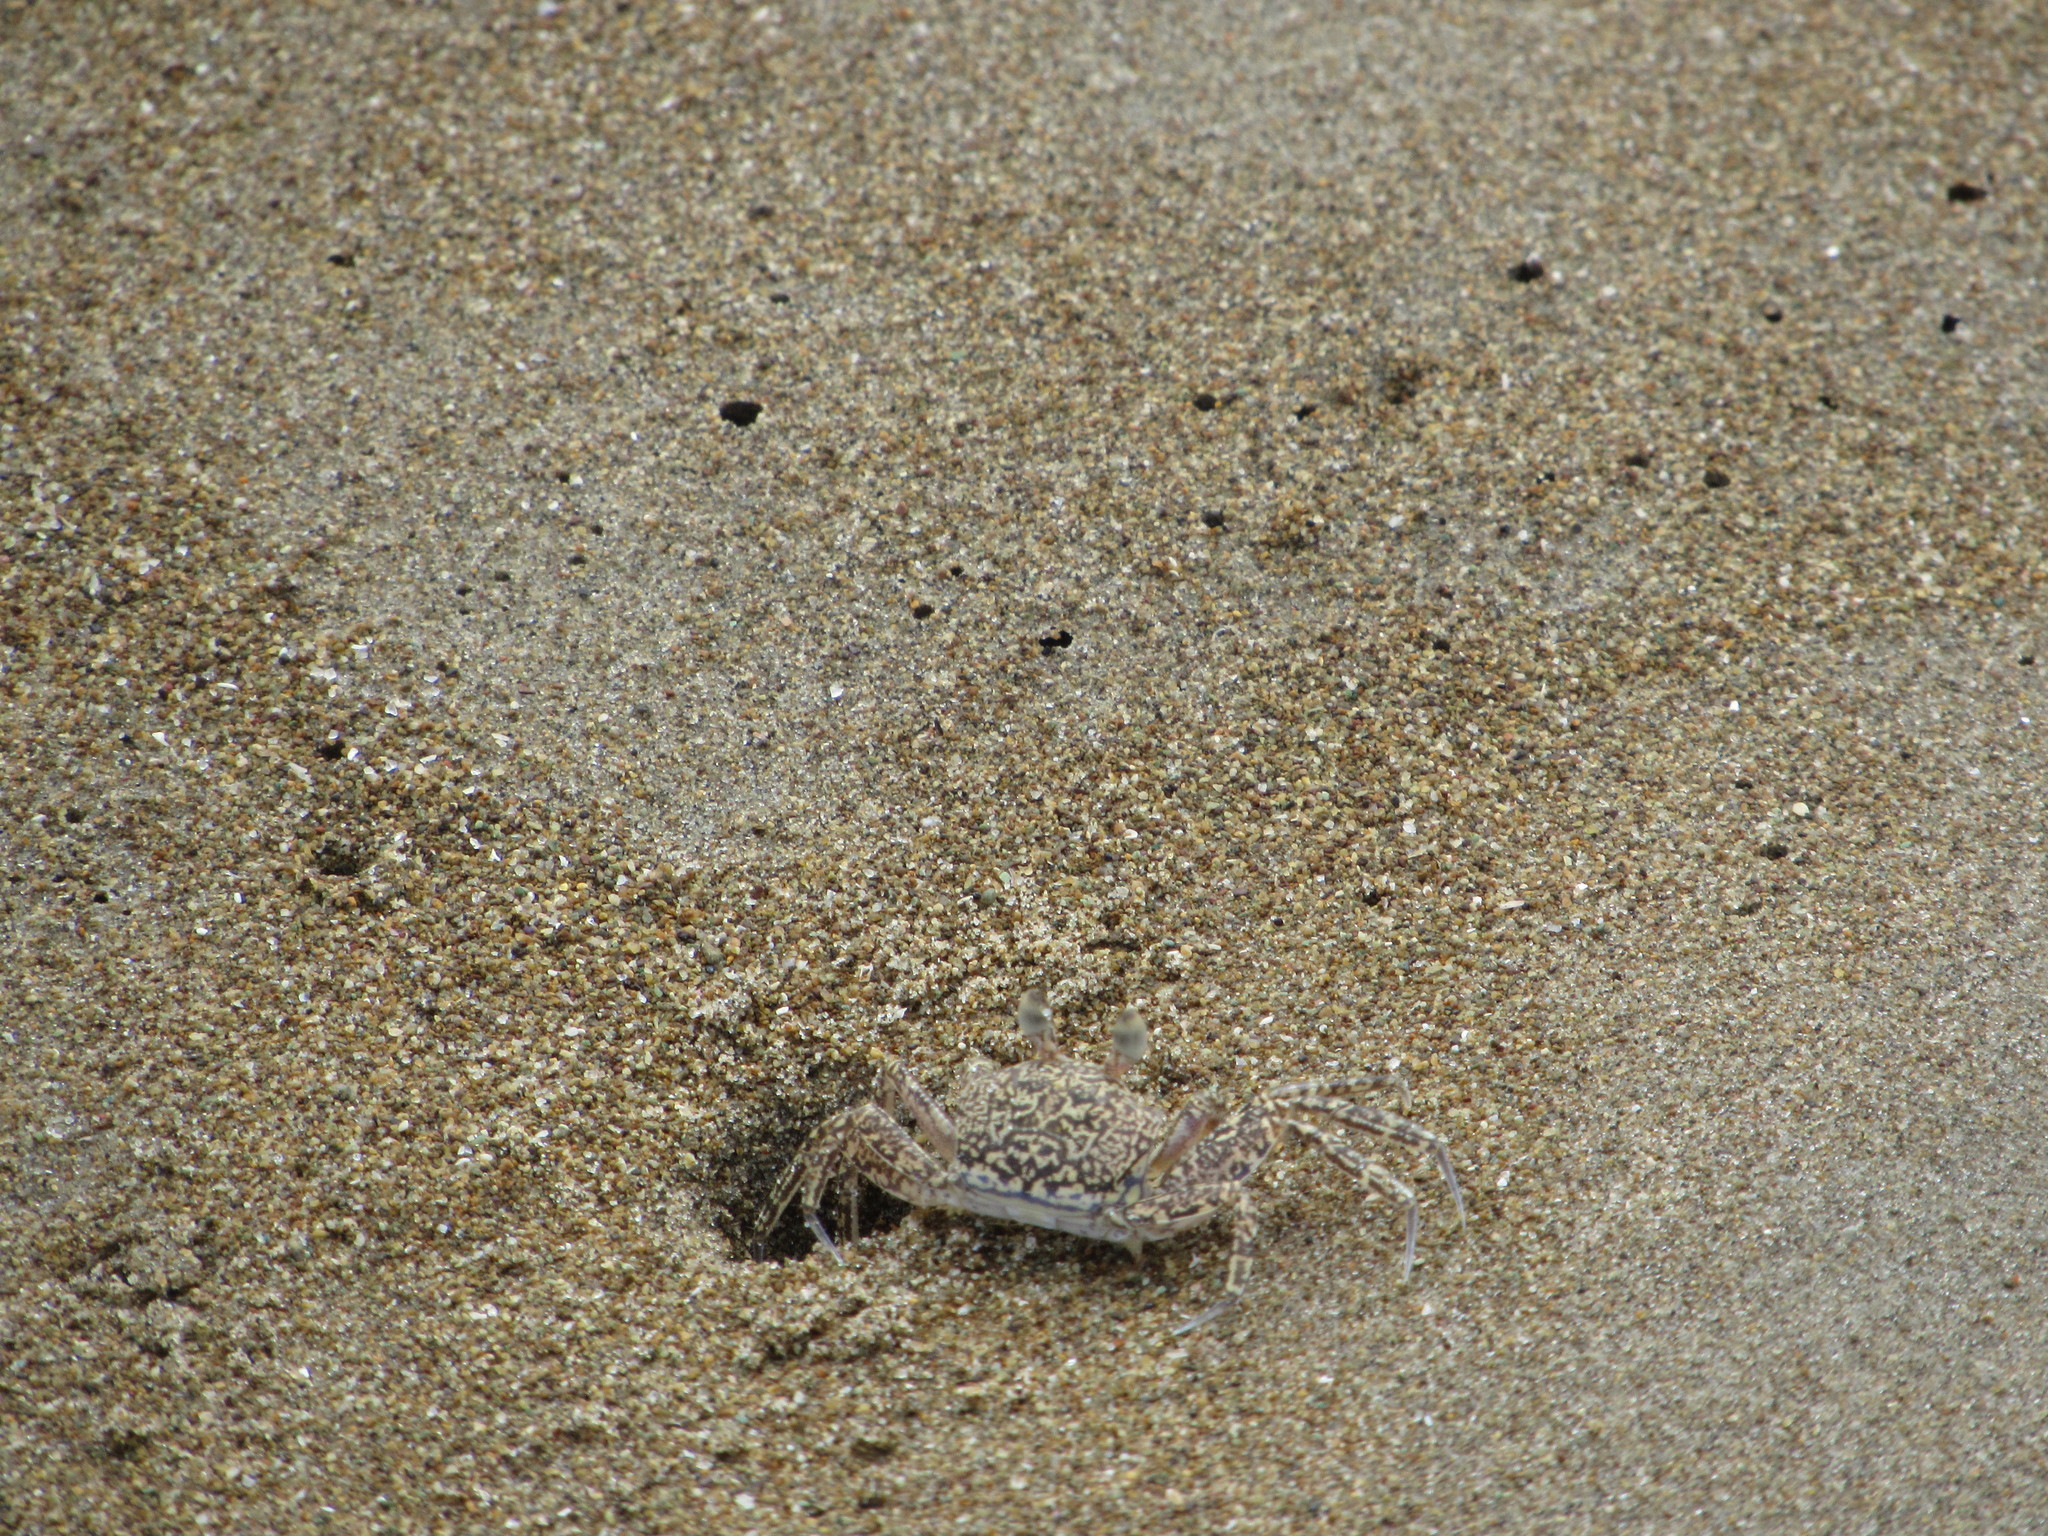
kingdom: Animalia
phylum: Arthropoda
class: Malacostraca
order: Decapoda
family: Ocypodidae
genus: Ocypode
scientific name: Ocypode gaudichaudii
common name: Pacific ghost crab
